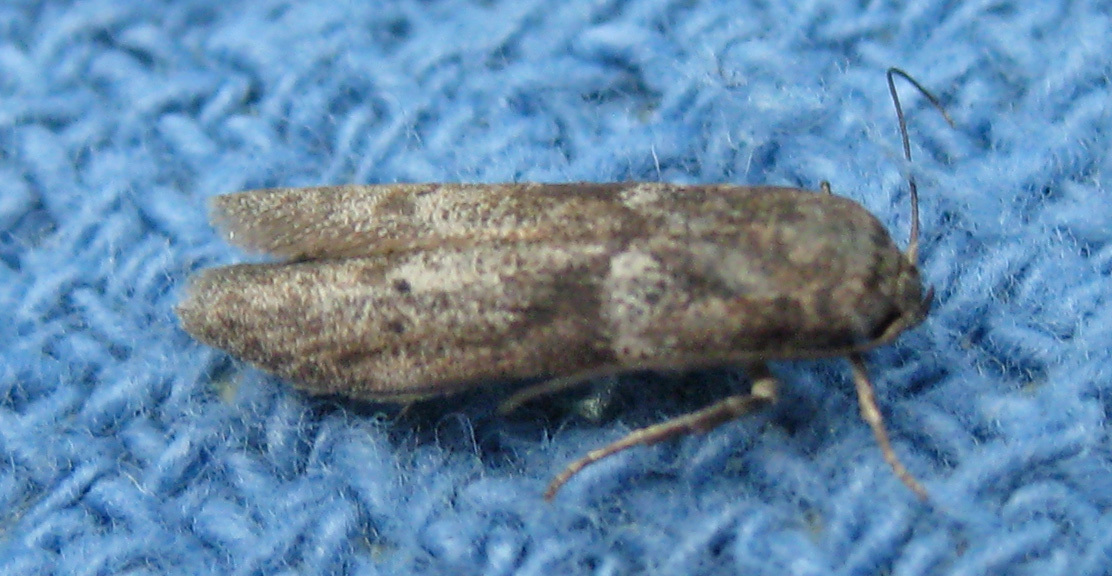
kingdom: Animalia
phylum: Arthropoda
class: Insecta
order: Lepidoptera
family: Blastobasidae
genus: Blastobasis
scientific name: Blastobasis glandulella
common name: Acorn moth
